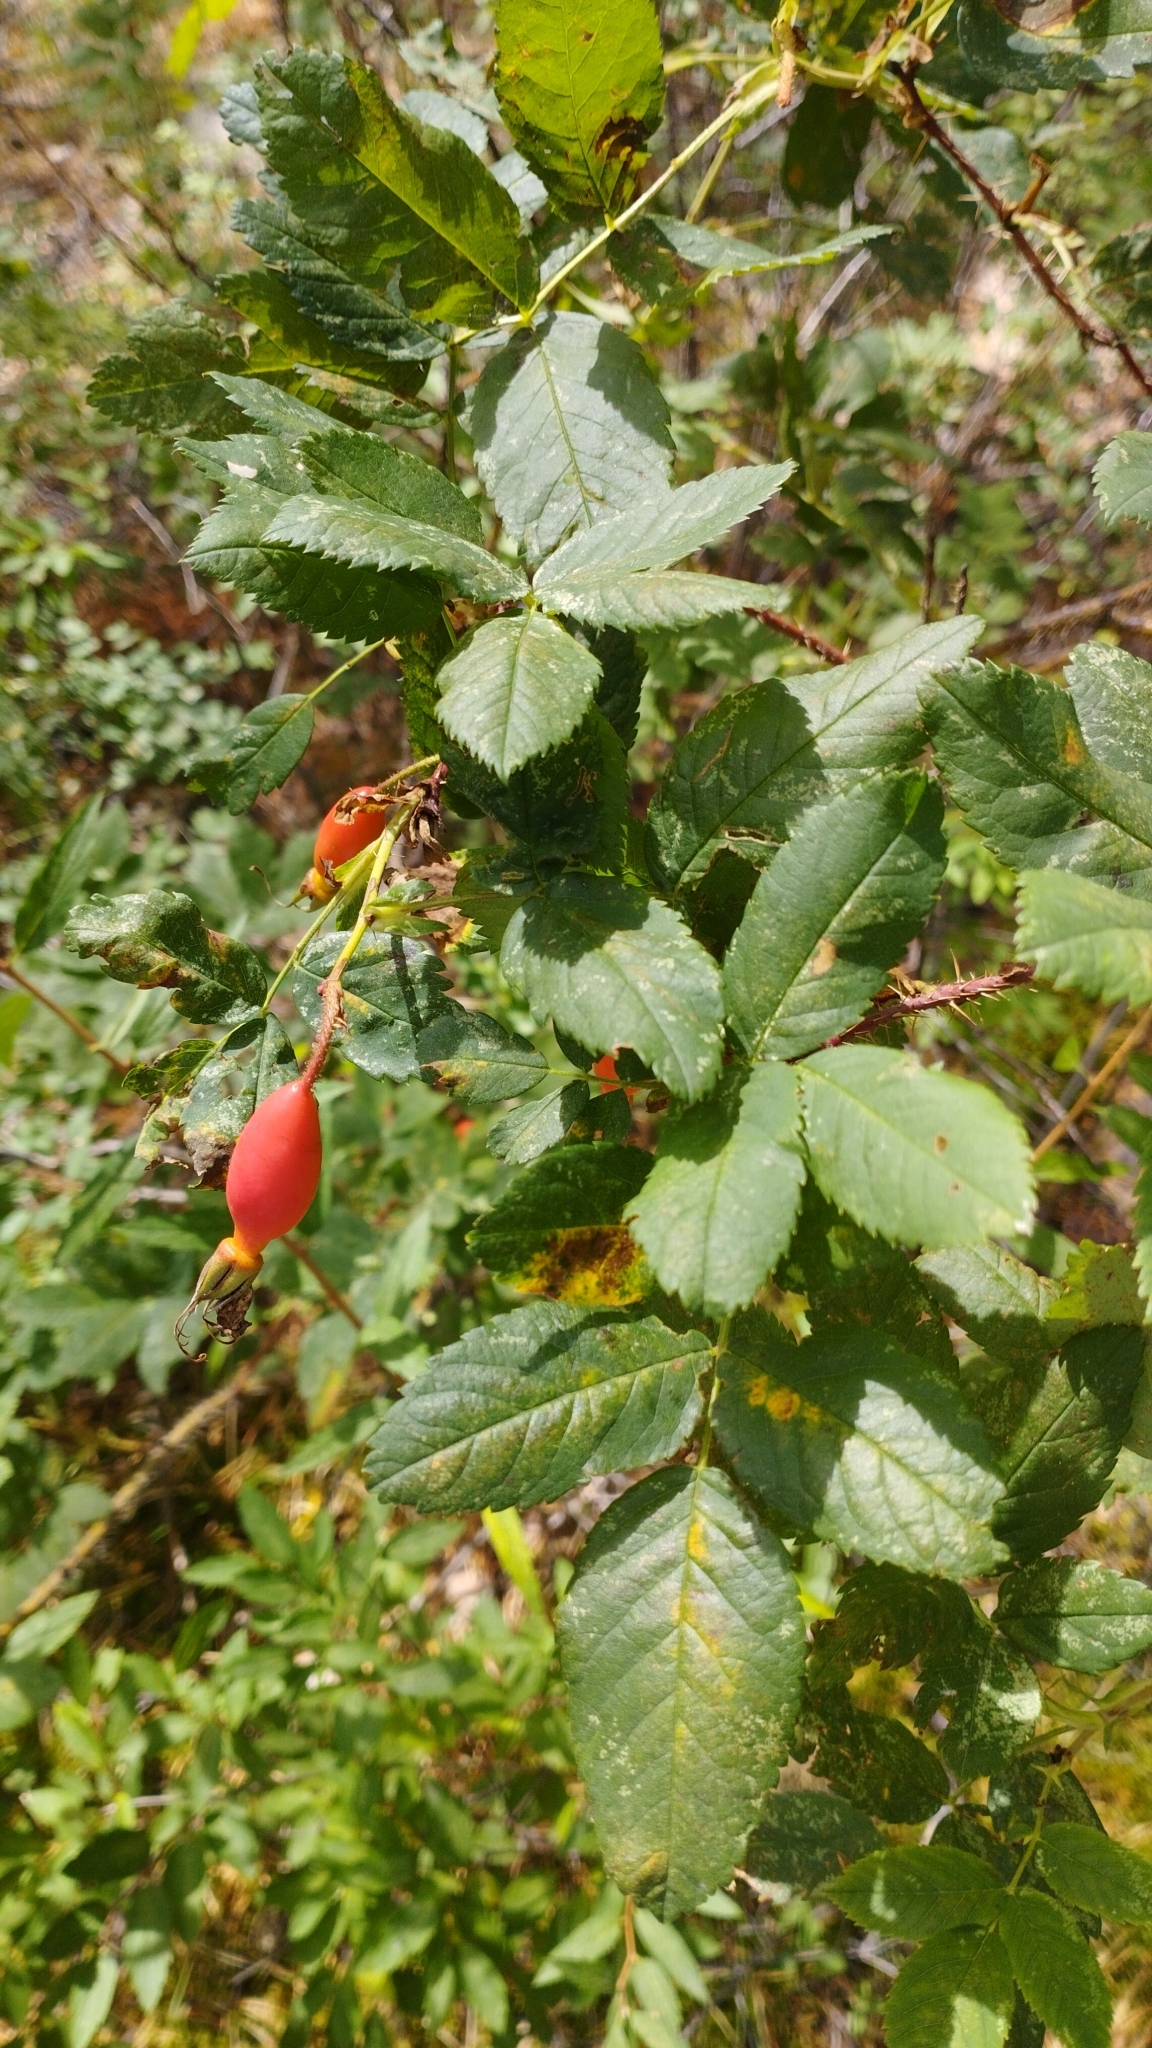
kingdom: Plantae
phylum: Tracheophyta
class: Magnoliopsida
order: Rosales
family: Rosaceae
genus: Rosa
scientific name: Rosa acicularis
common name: Prickly rose
